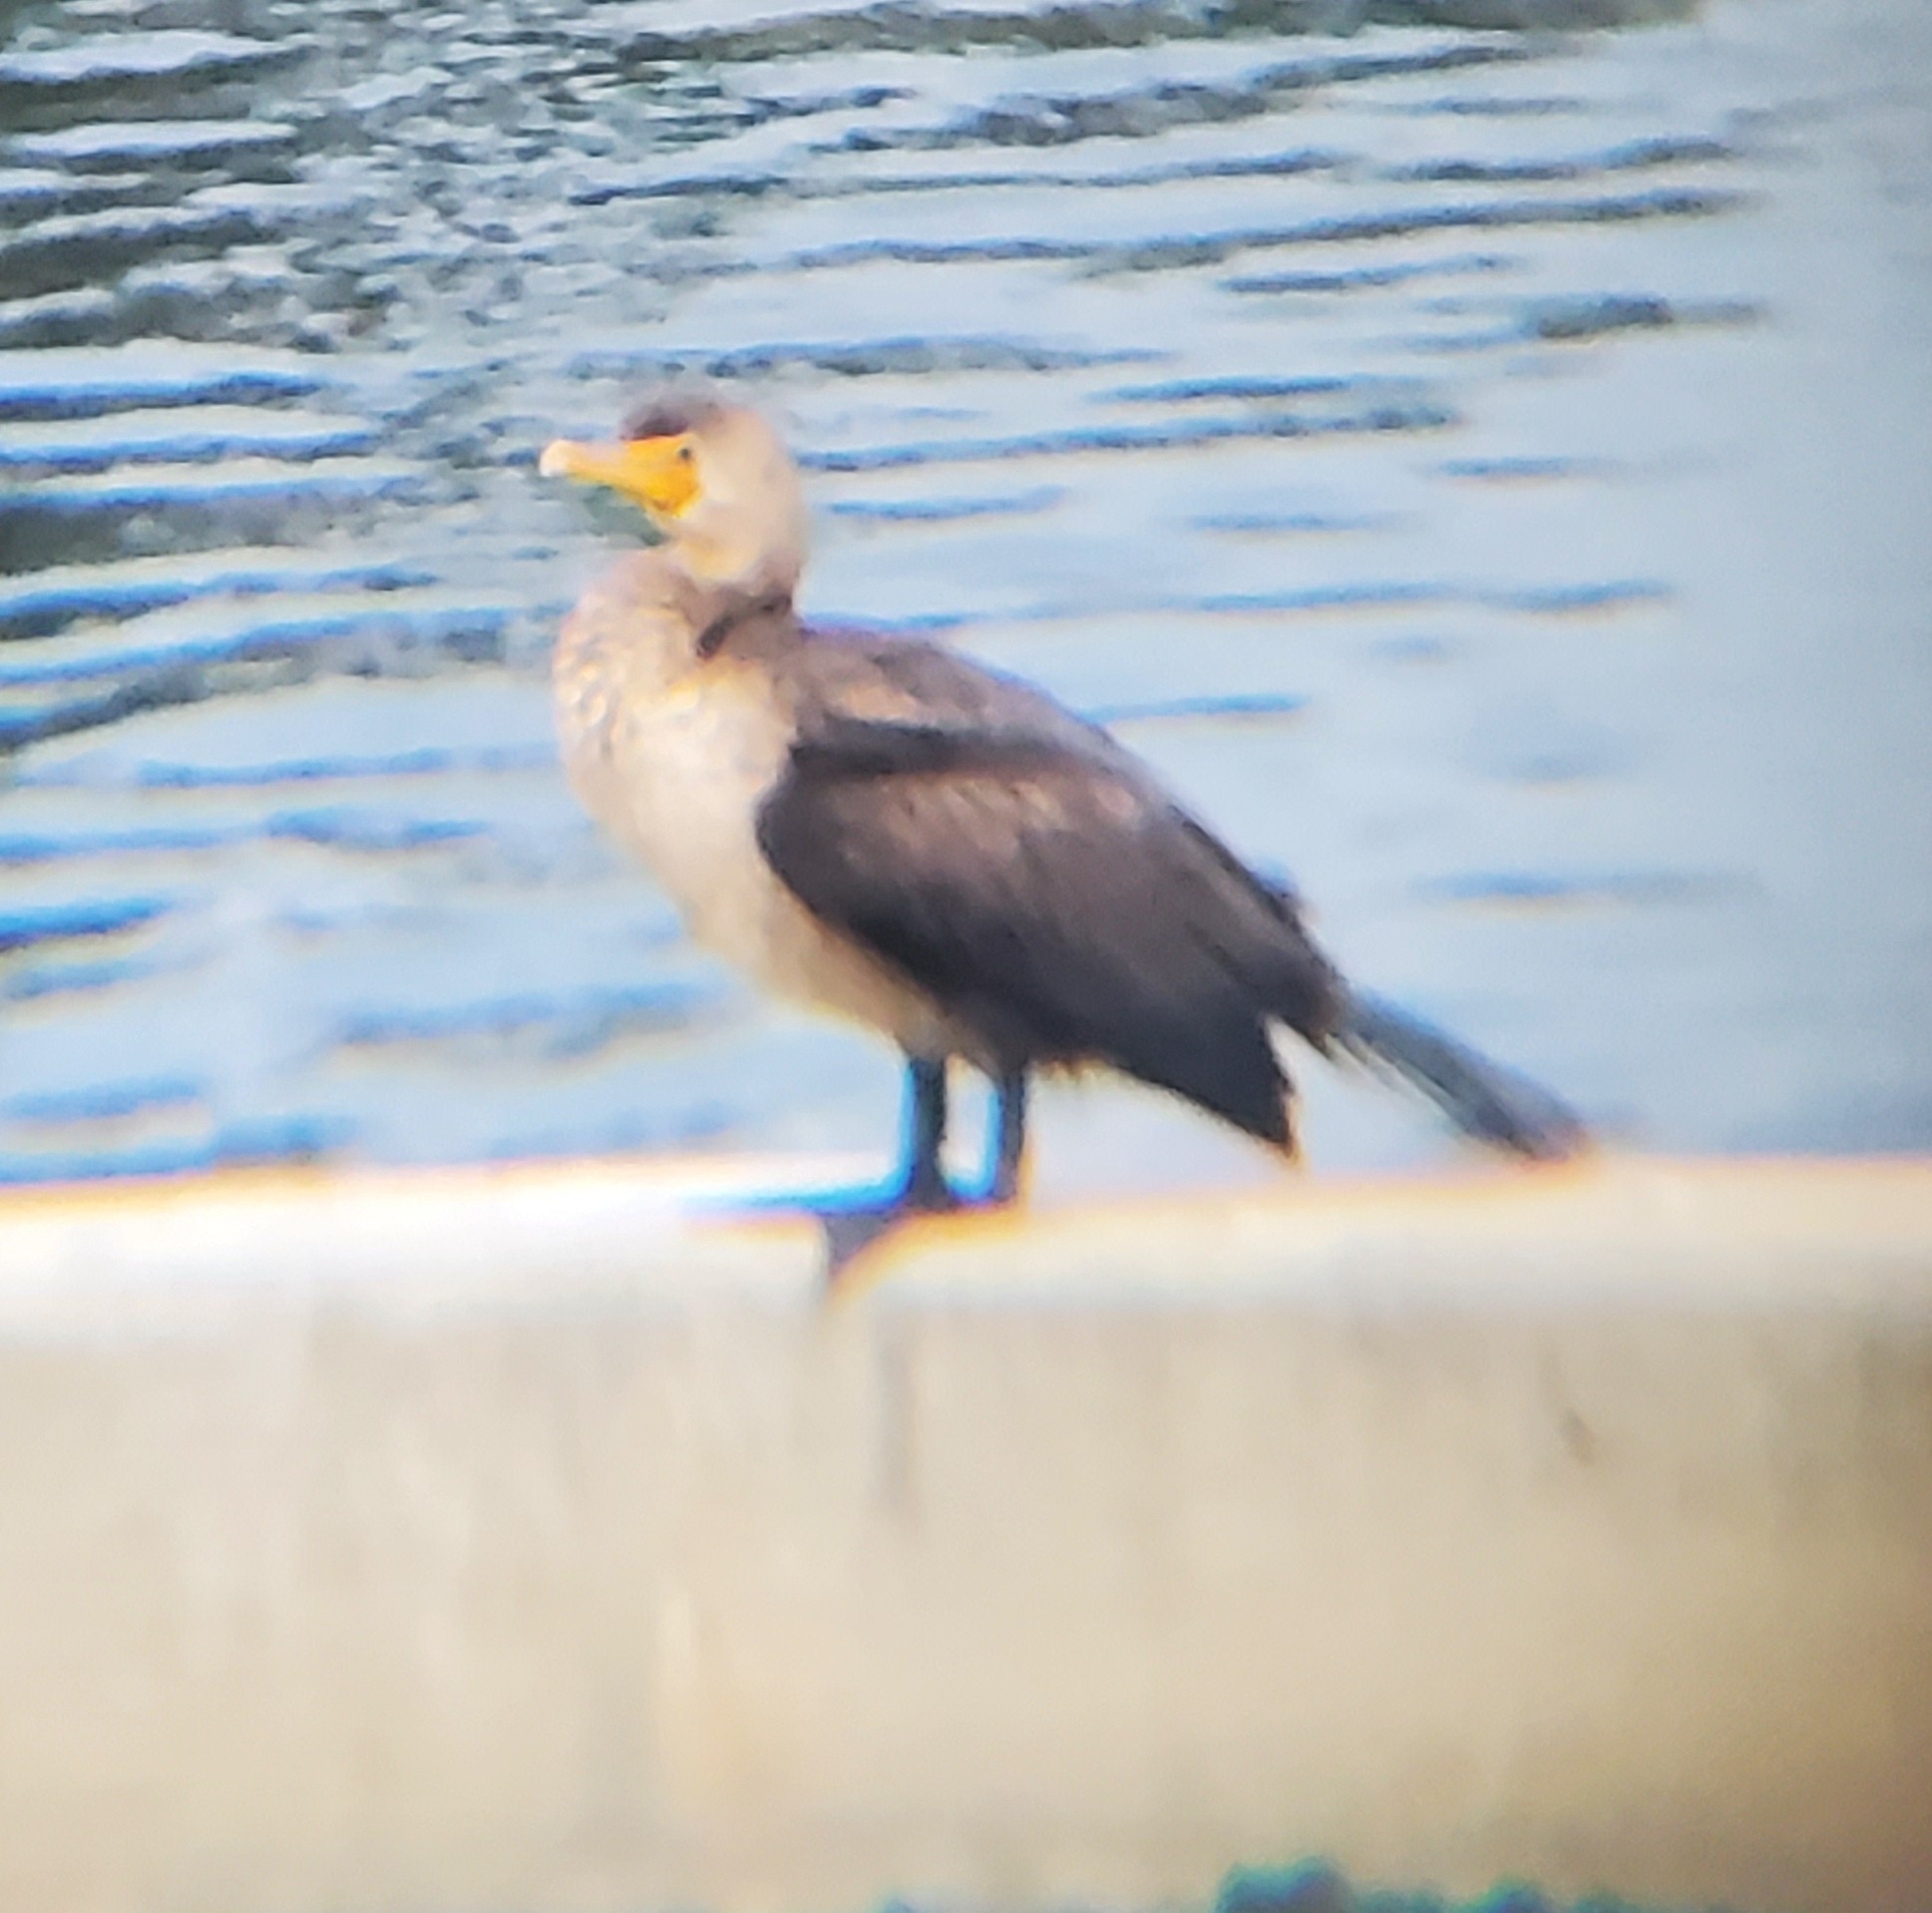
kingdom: Animalia
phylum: Chordata
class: Aves
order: Suliformes
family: Phalacrocoracidae
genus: Phalacrocorax
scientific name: Phalacrocorax auritus
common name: Double-crested cormorant
